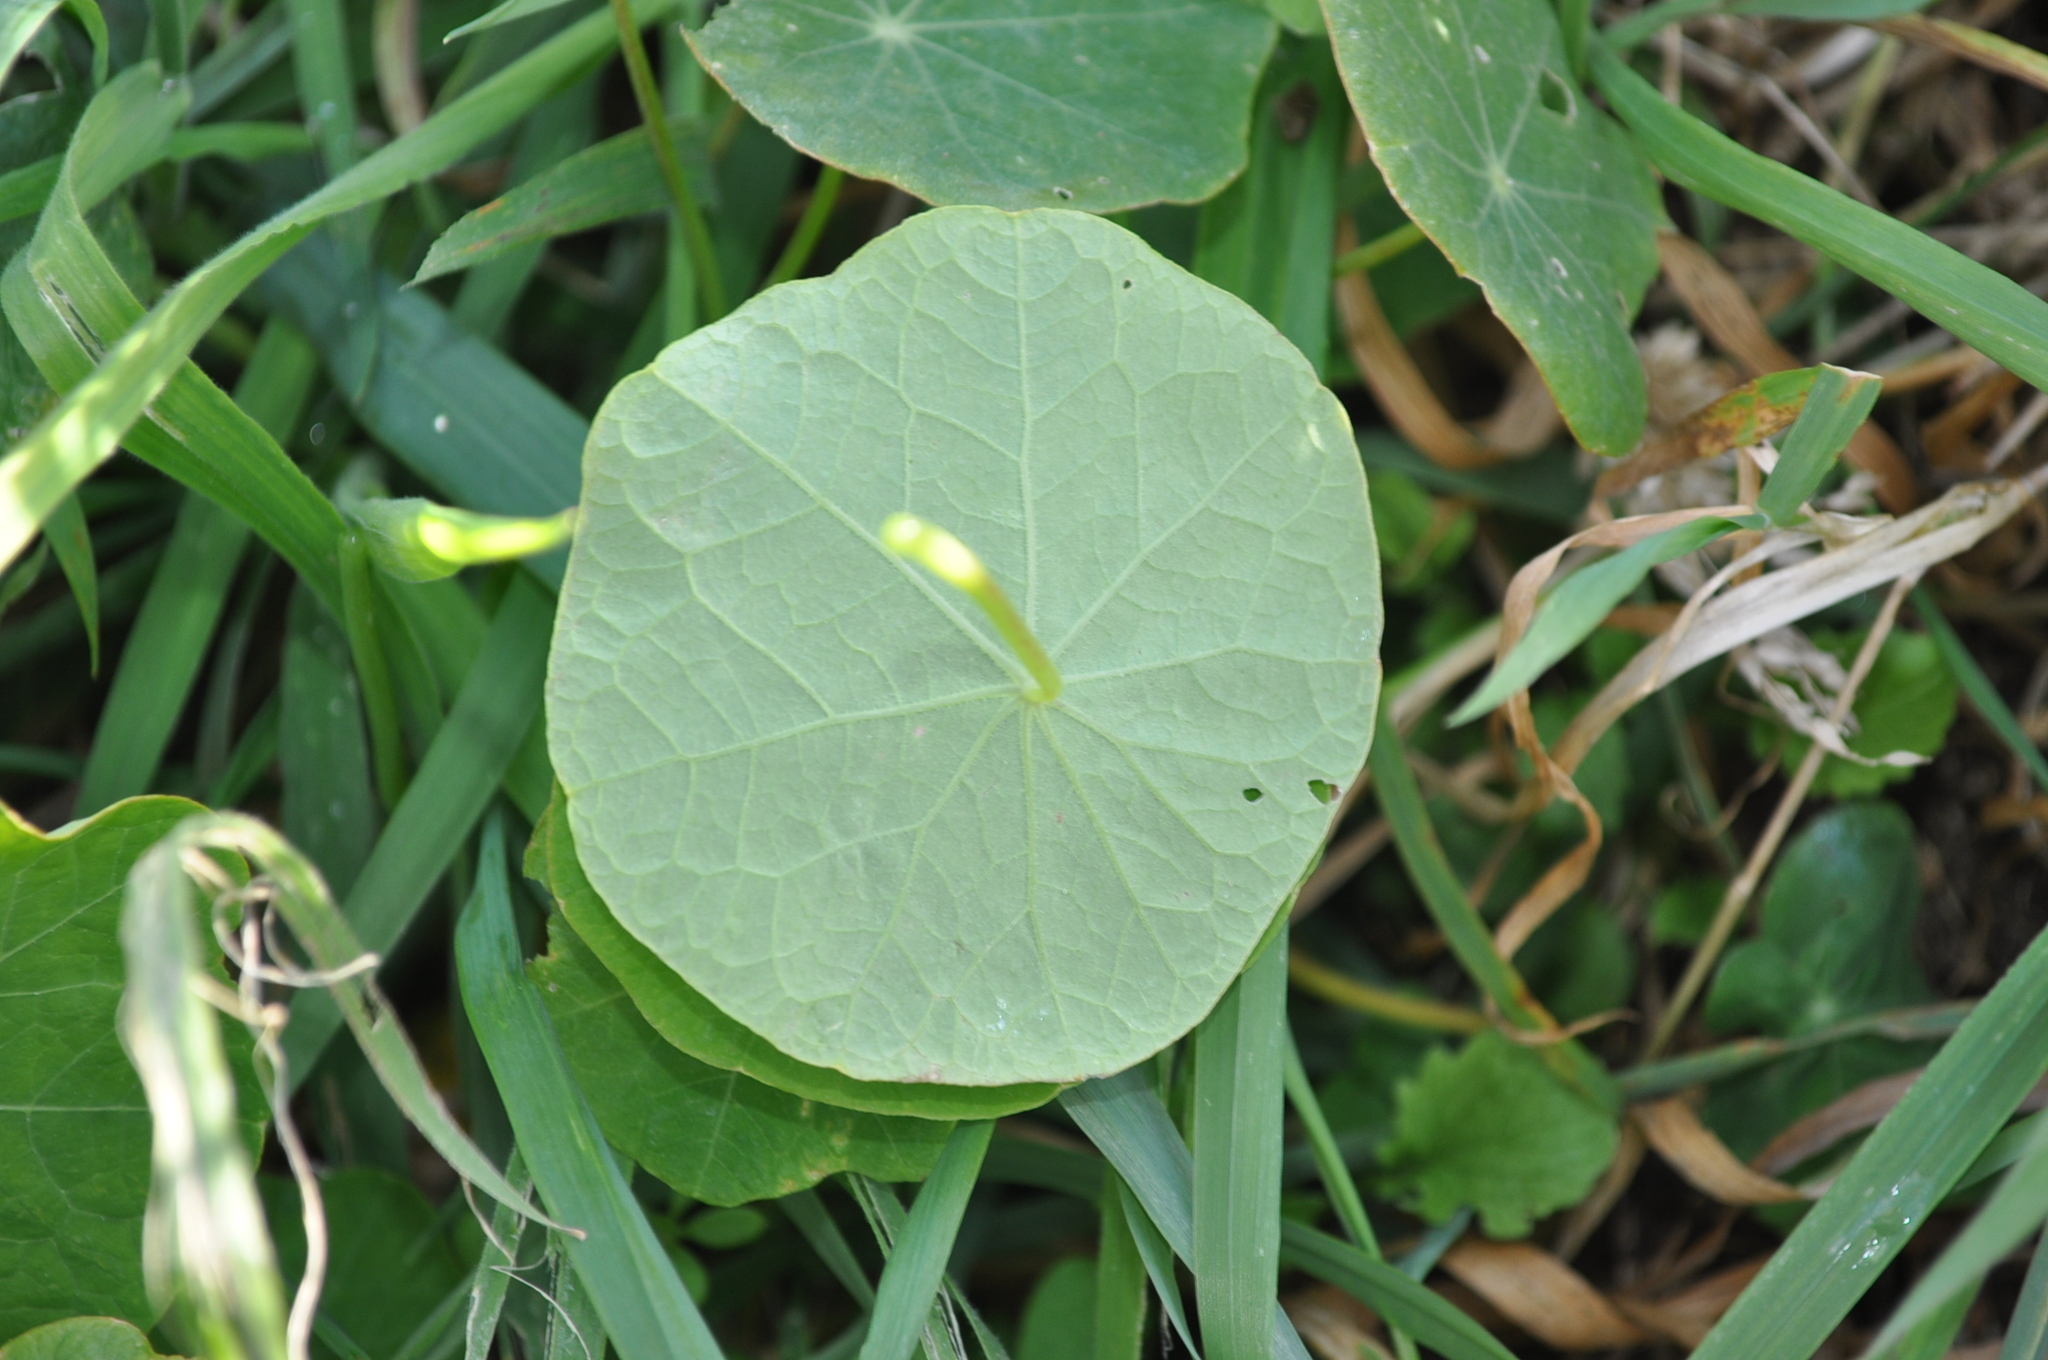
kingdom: Plantae
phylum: Tracheophyta
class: Magnoliopsida
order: Brassicales
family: Tropaeolaceae
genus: Tropaeolum
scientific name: Tropaeolum majus
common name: Nasturtium
